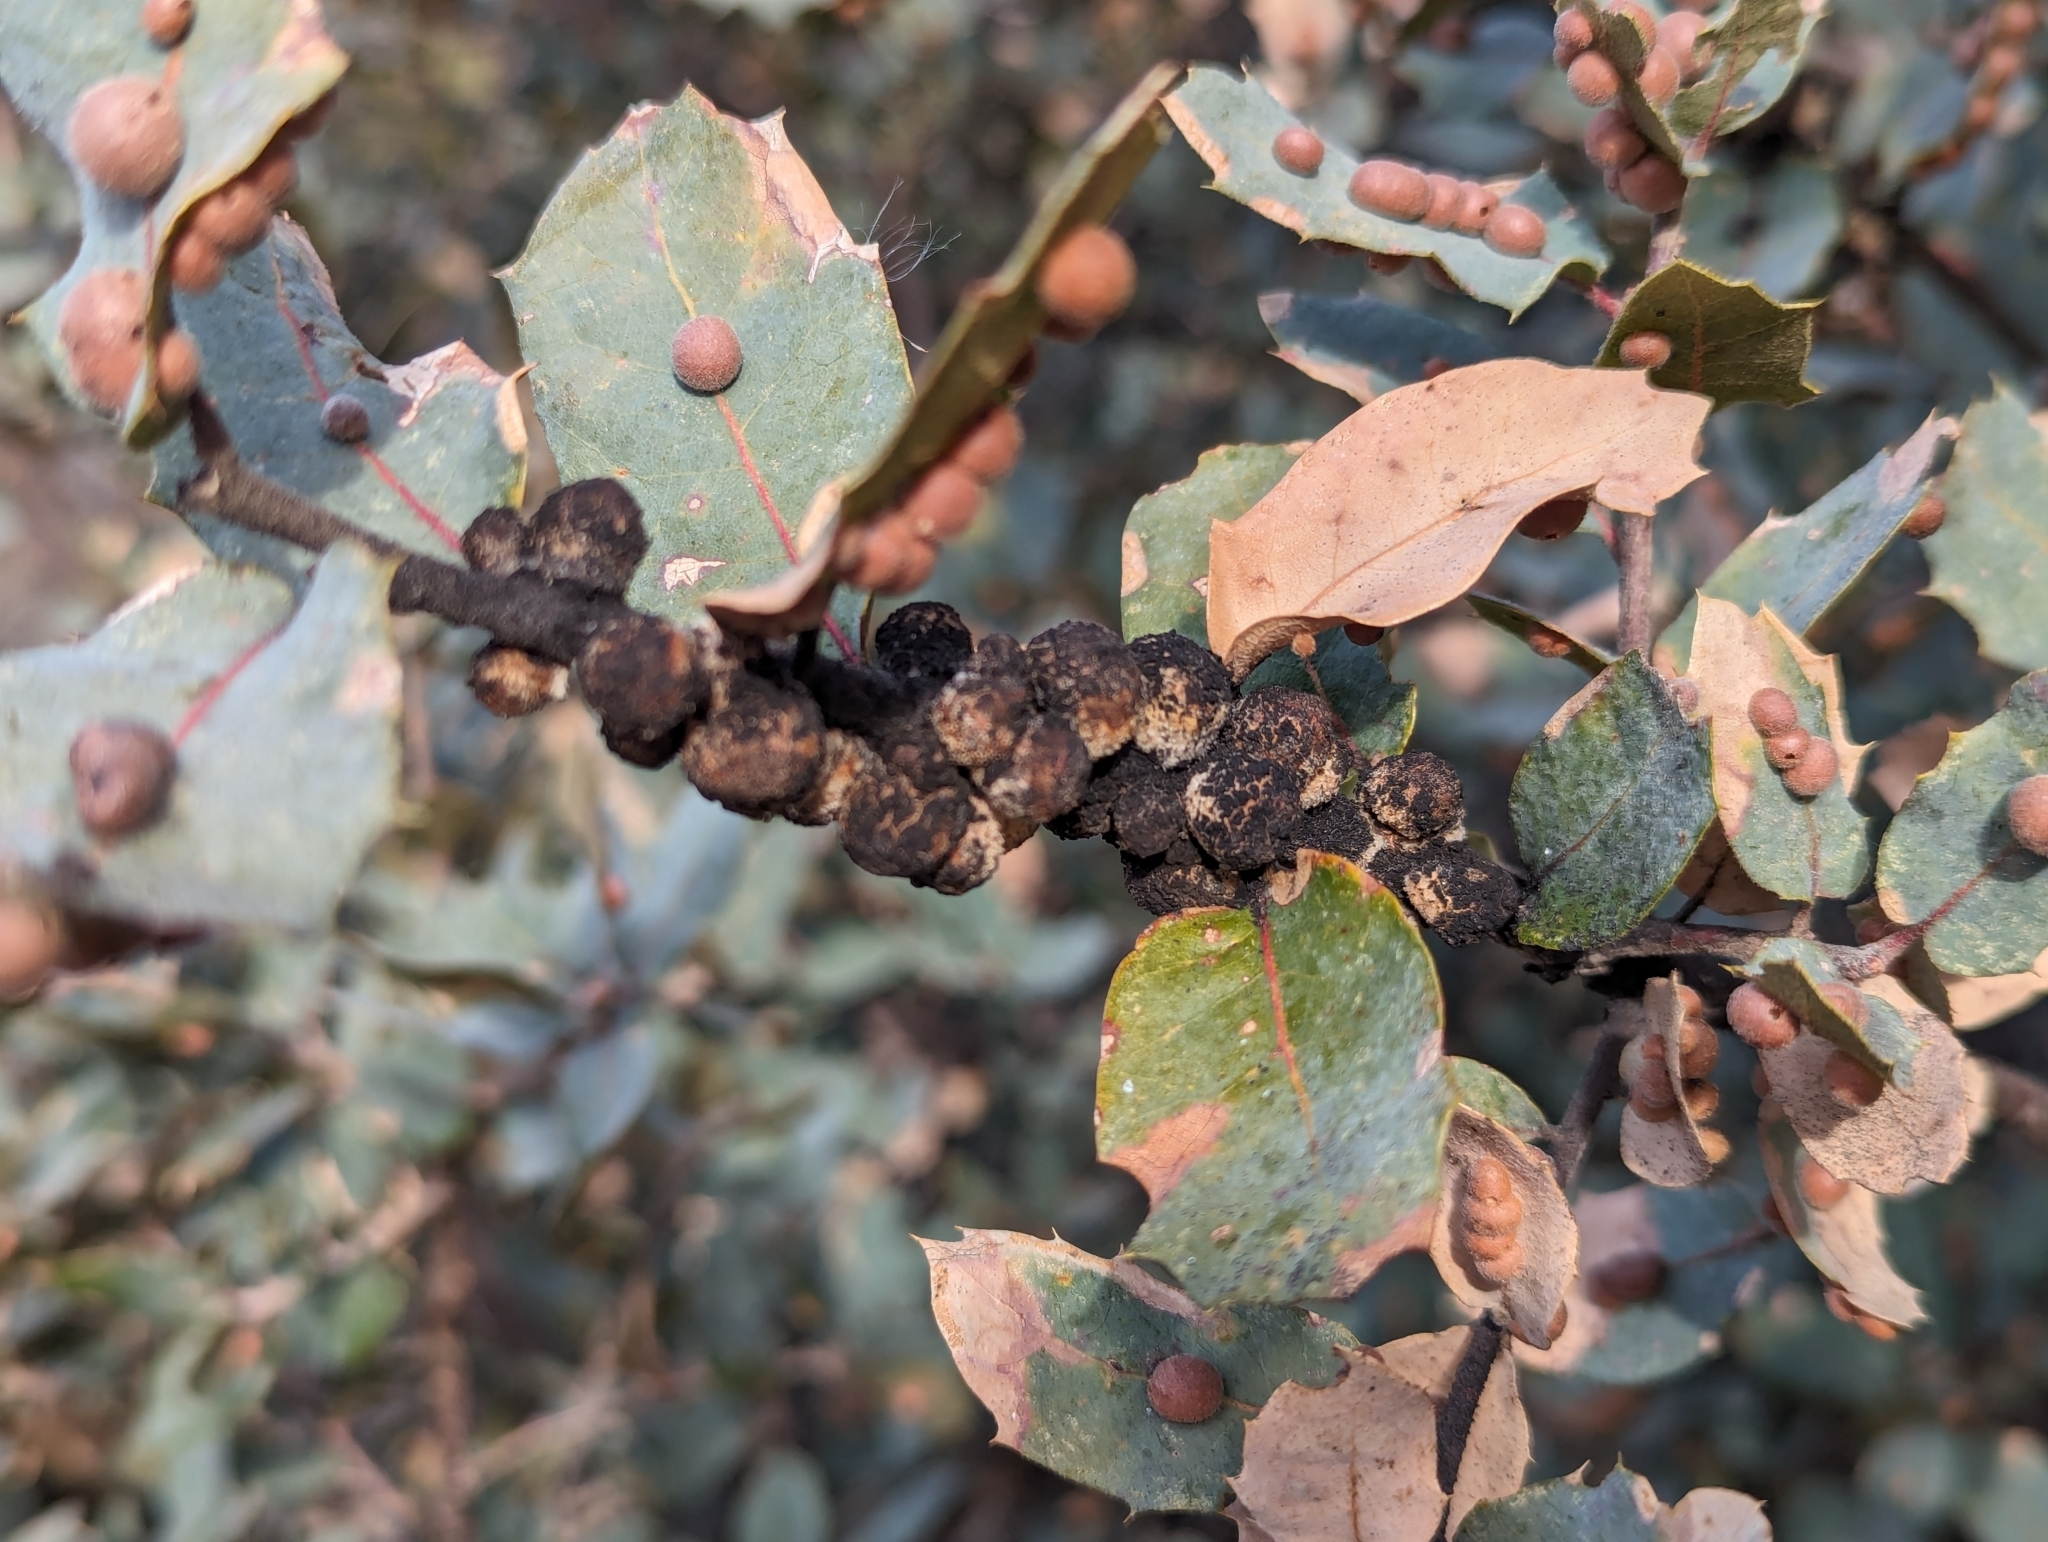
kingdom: Animalia
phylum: Arthropoda
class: Insecta
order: Hymenoptera
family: Cynipidae
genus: Disholcaspis
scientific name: Disholcaspis
